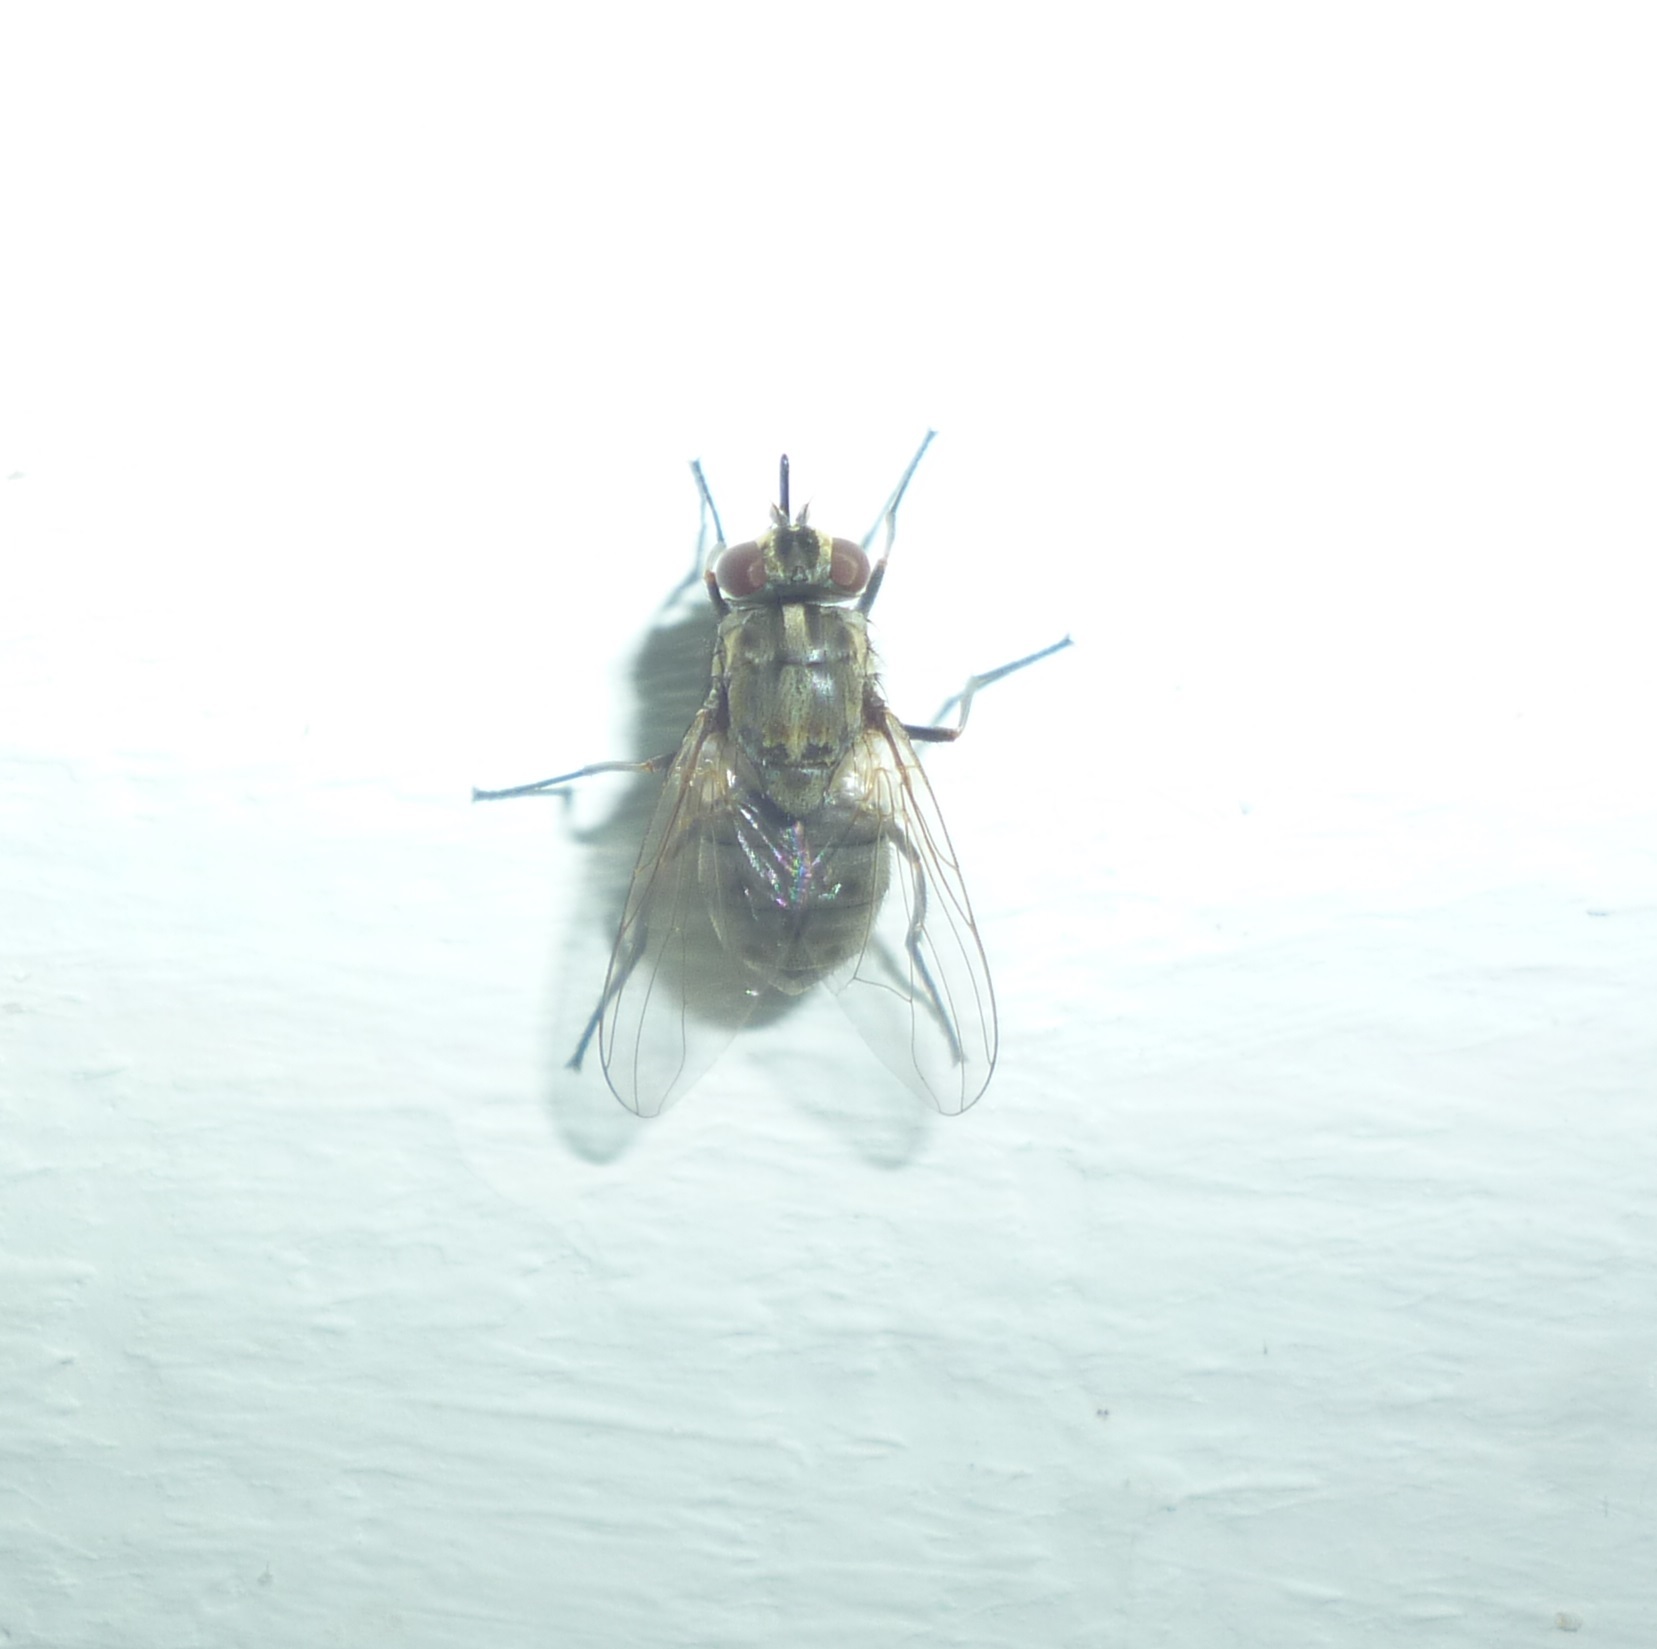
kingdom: Animalia
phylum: Arthropoda
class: Insecta
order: Diptera
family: Muscidae
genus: Stomoxys
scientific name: Stomoxys calcitrans
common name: Stable fly
